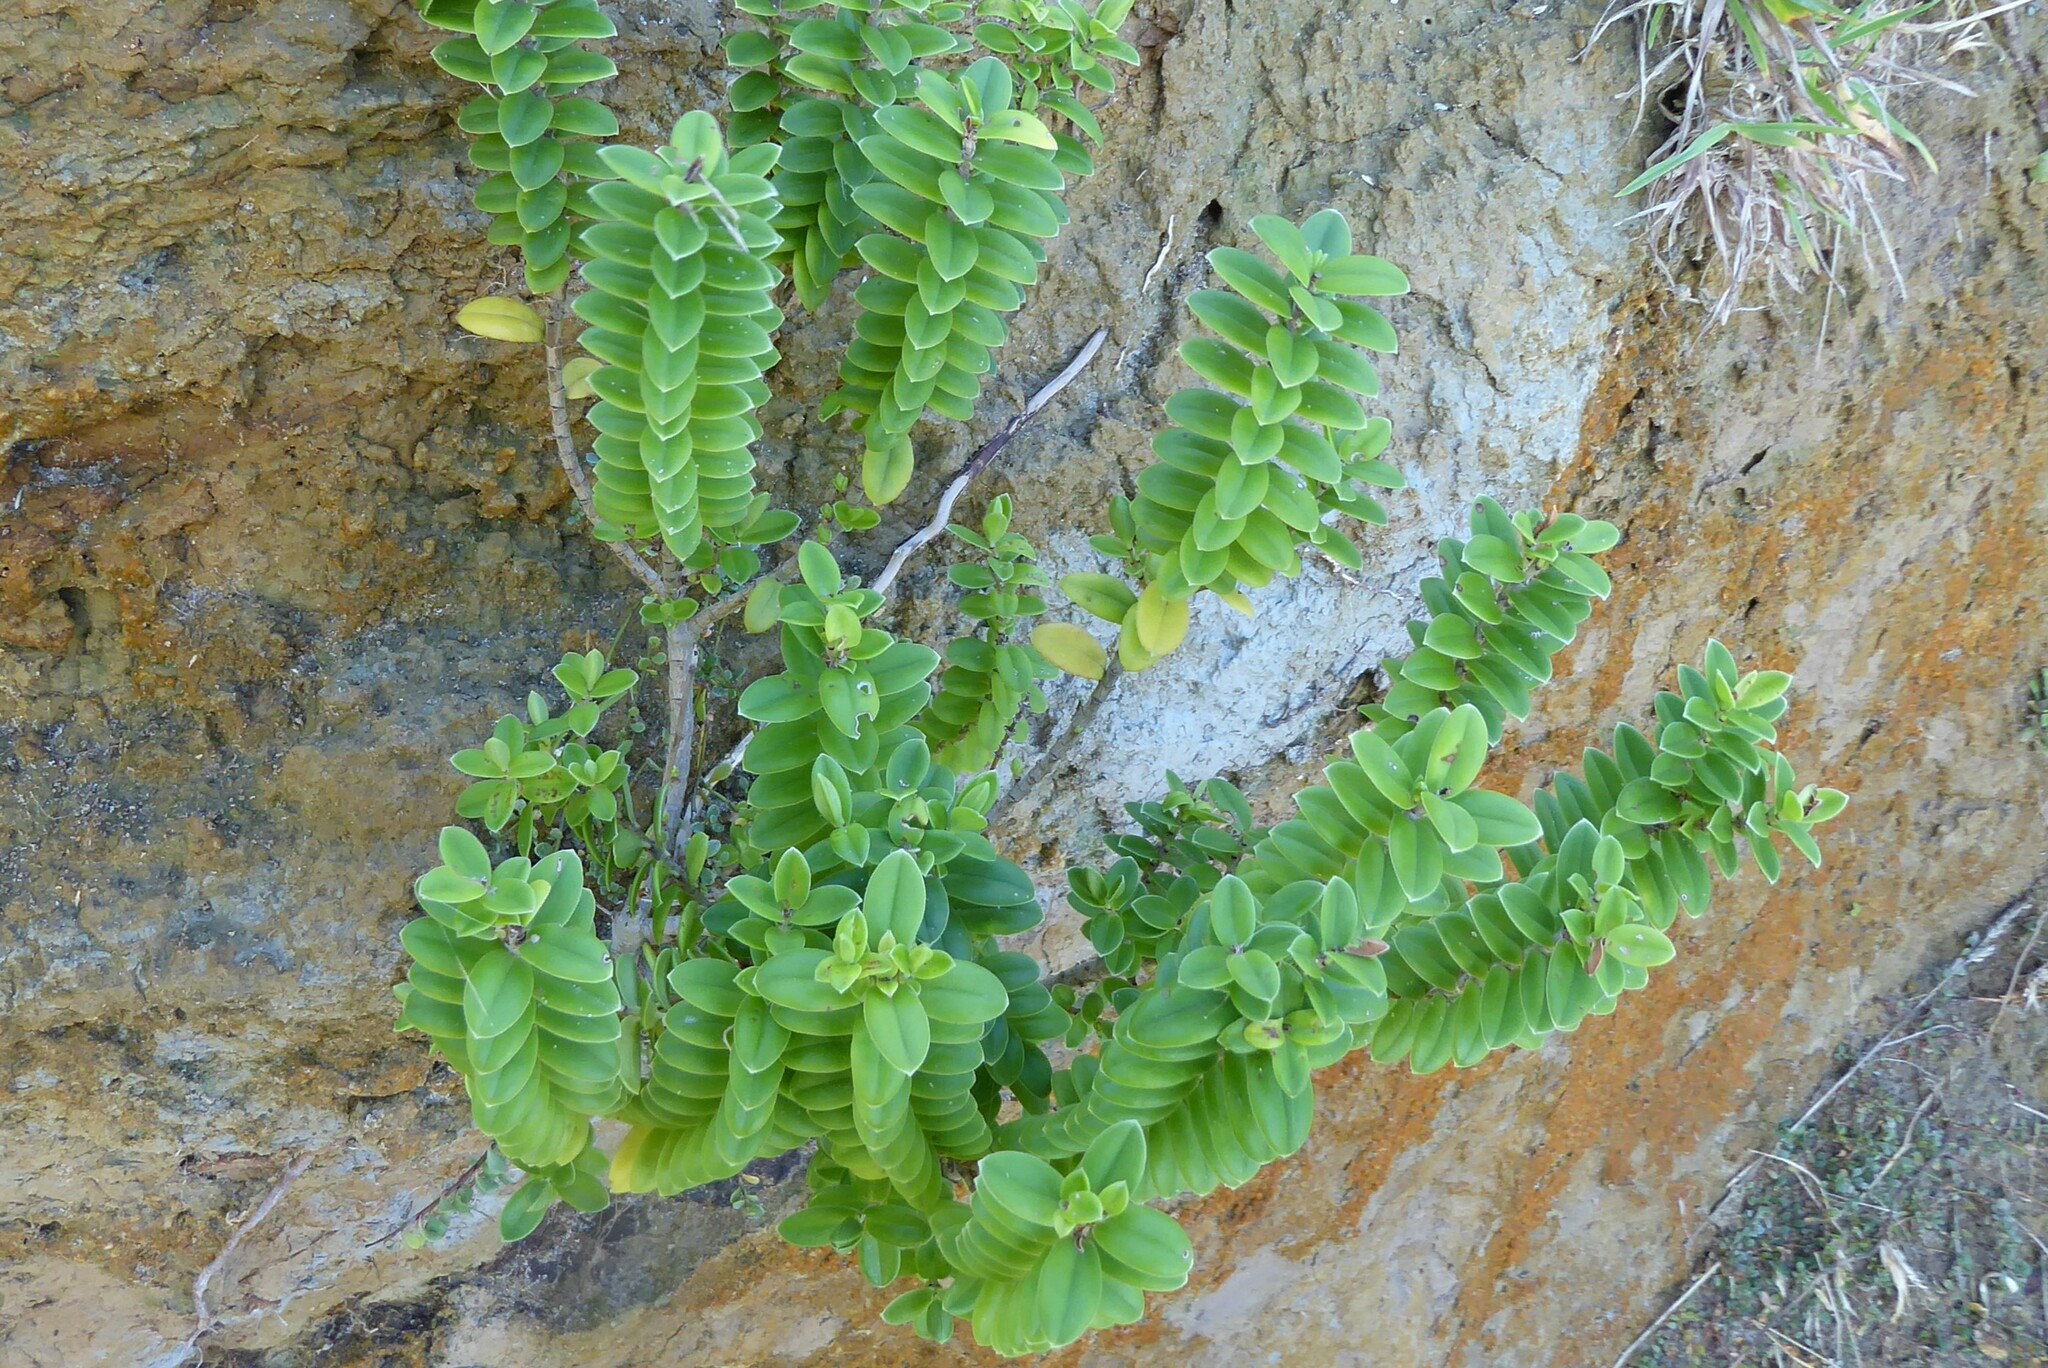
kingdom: Plantae
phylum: Tracheophyta
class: Magnoliopsida
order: Lamiales
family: Plantaginaceae
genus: Veronica
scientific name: Veronica elliptica
